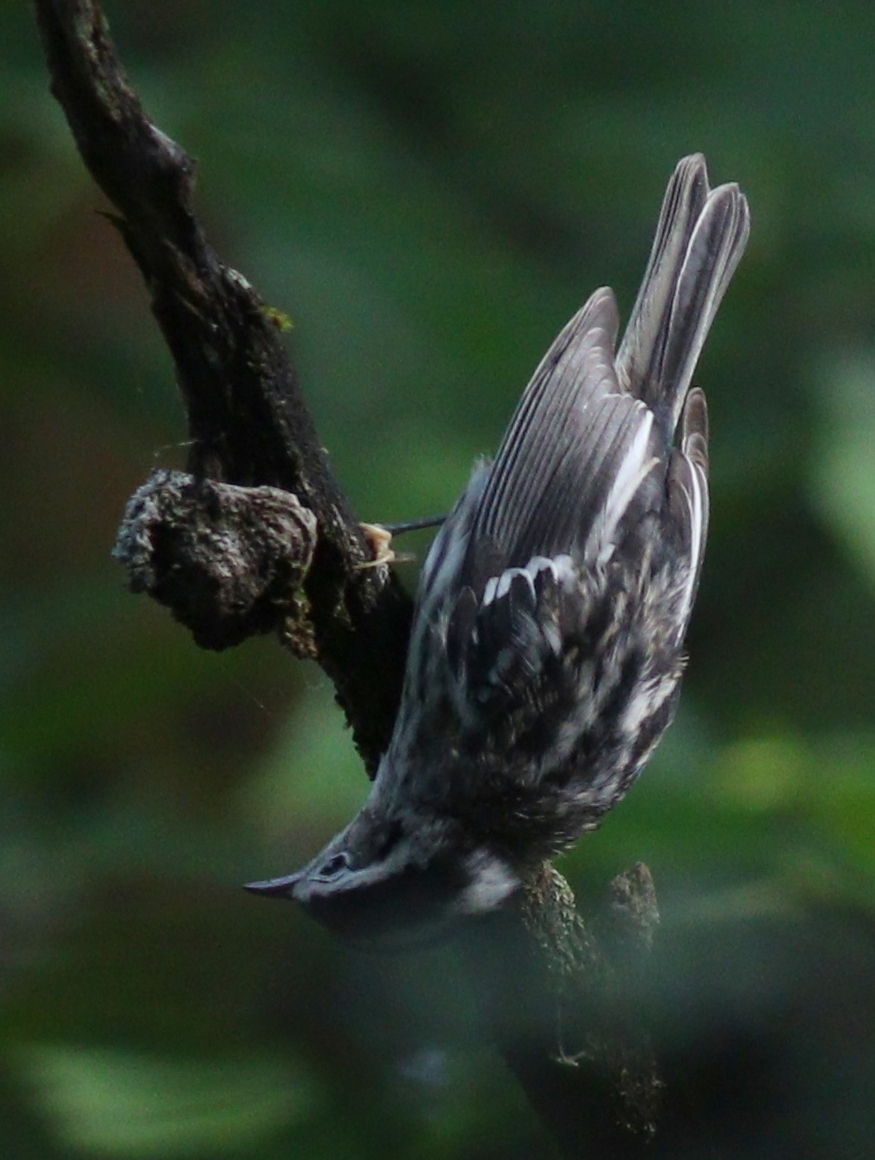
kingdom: Animalia
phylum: Chordata
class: Aves
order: Passeriformes
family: Parulidae
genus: Mniotilta
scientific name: Mniotilta varia
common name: Black-and-white warbler
